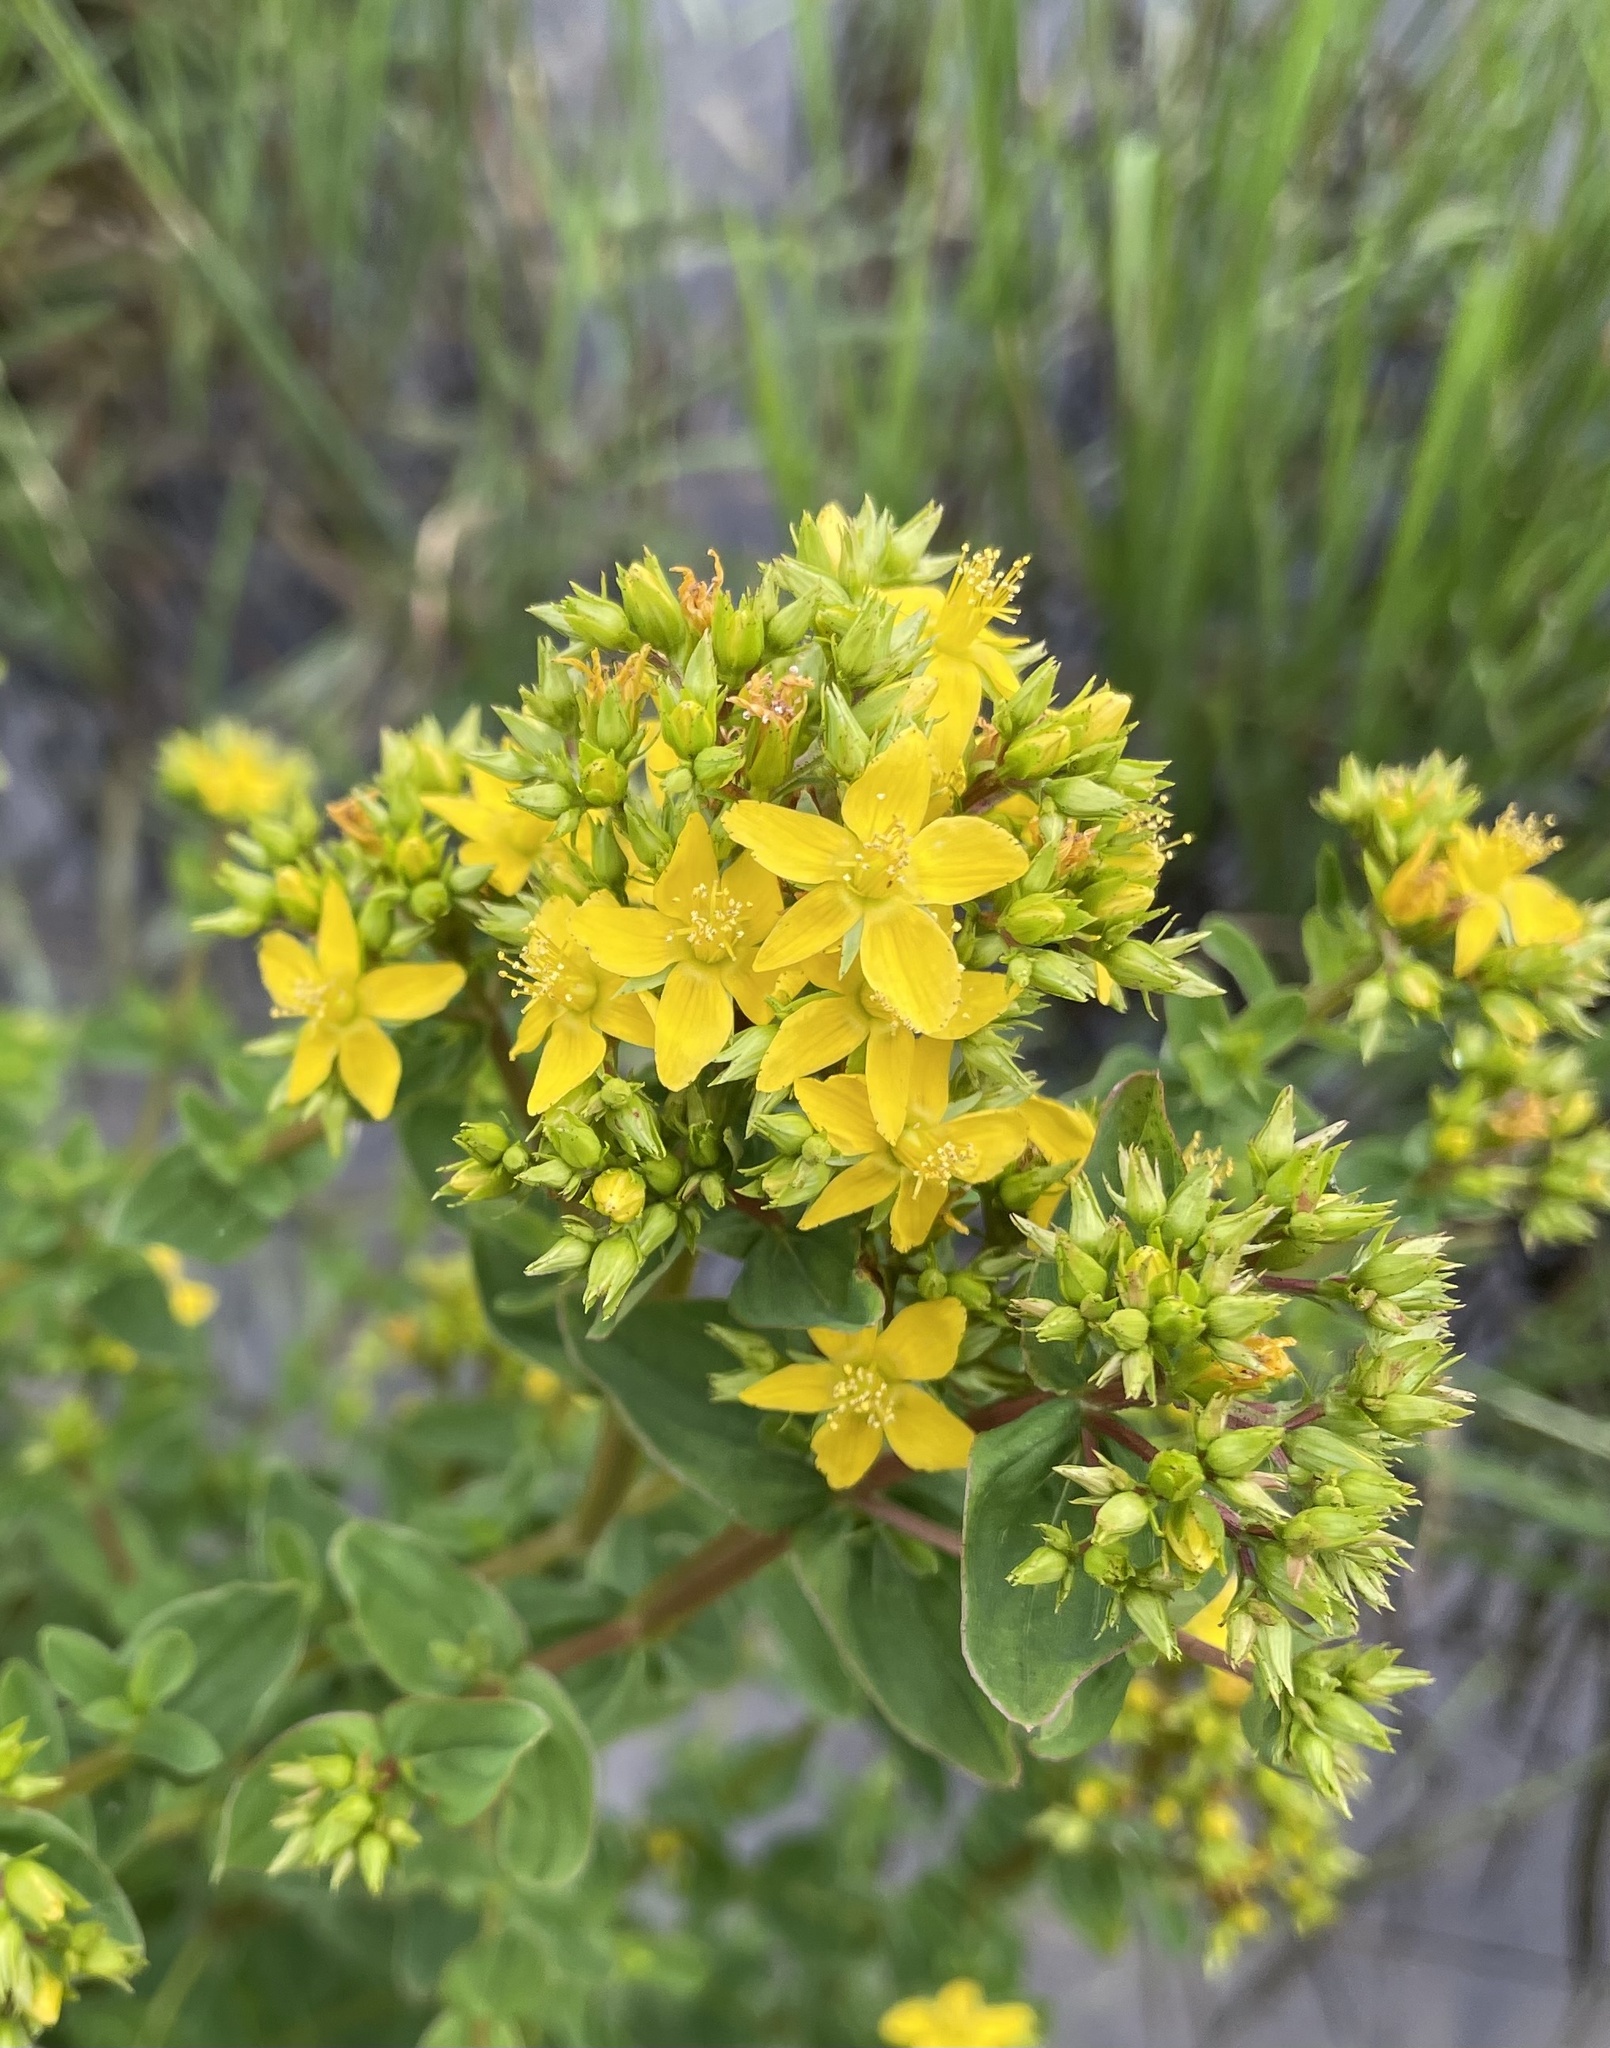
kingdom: Plantae
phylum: Tracheophyta
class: Magnoliopsida
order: Malpighiales
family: Hypericaceae
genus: Hypericum
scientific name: Hypericum tetrapterum
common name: Square-stalked st. john's-wort
